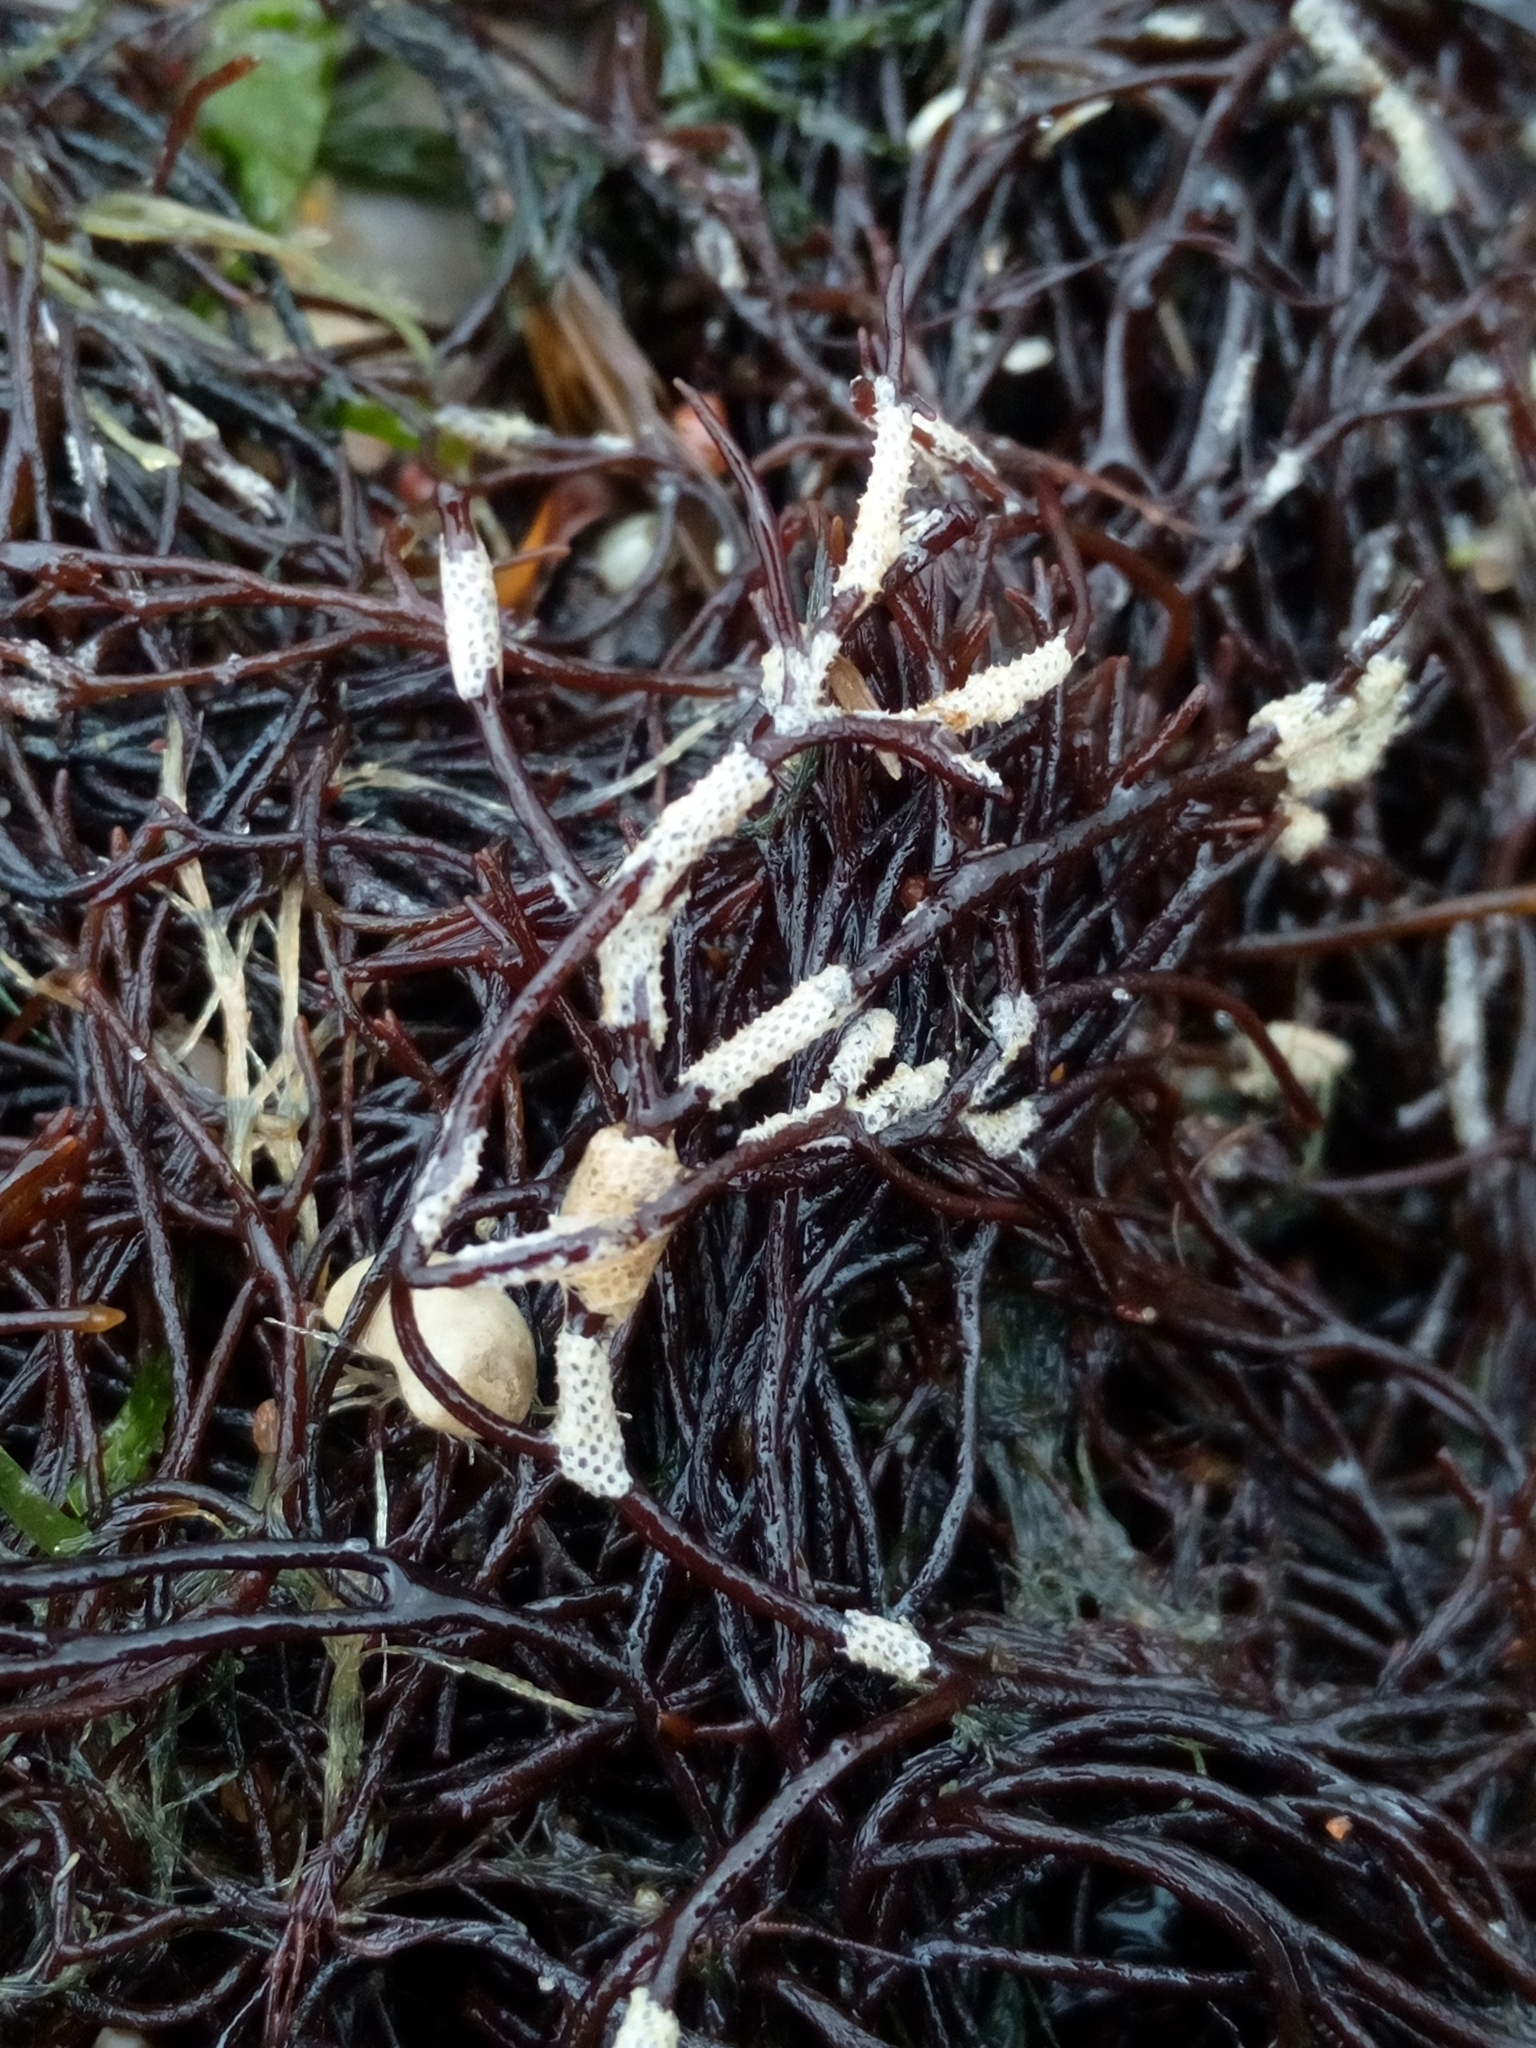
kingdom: Animalia
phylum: Bryozoa
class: Gymnolaemata
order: Cheilostomatida
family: Electridae
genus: Electra
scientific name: Electra pilosa
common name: Hairy sea-mat
